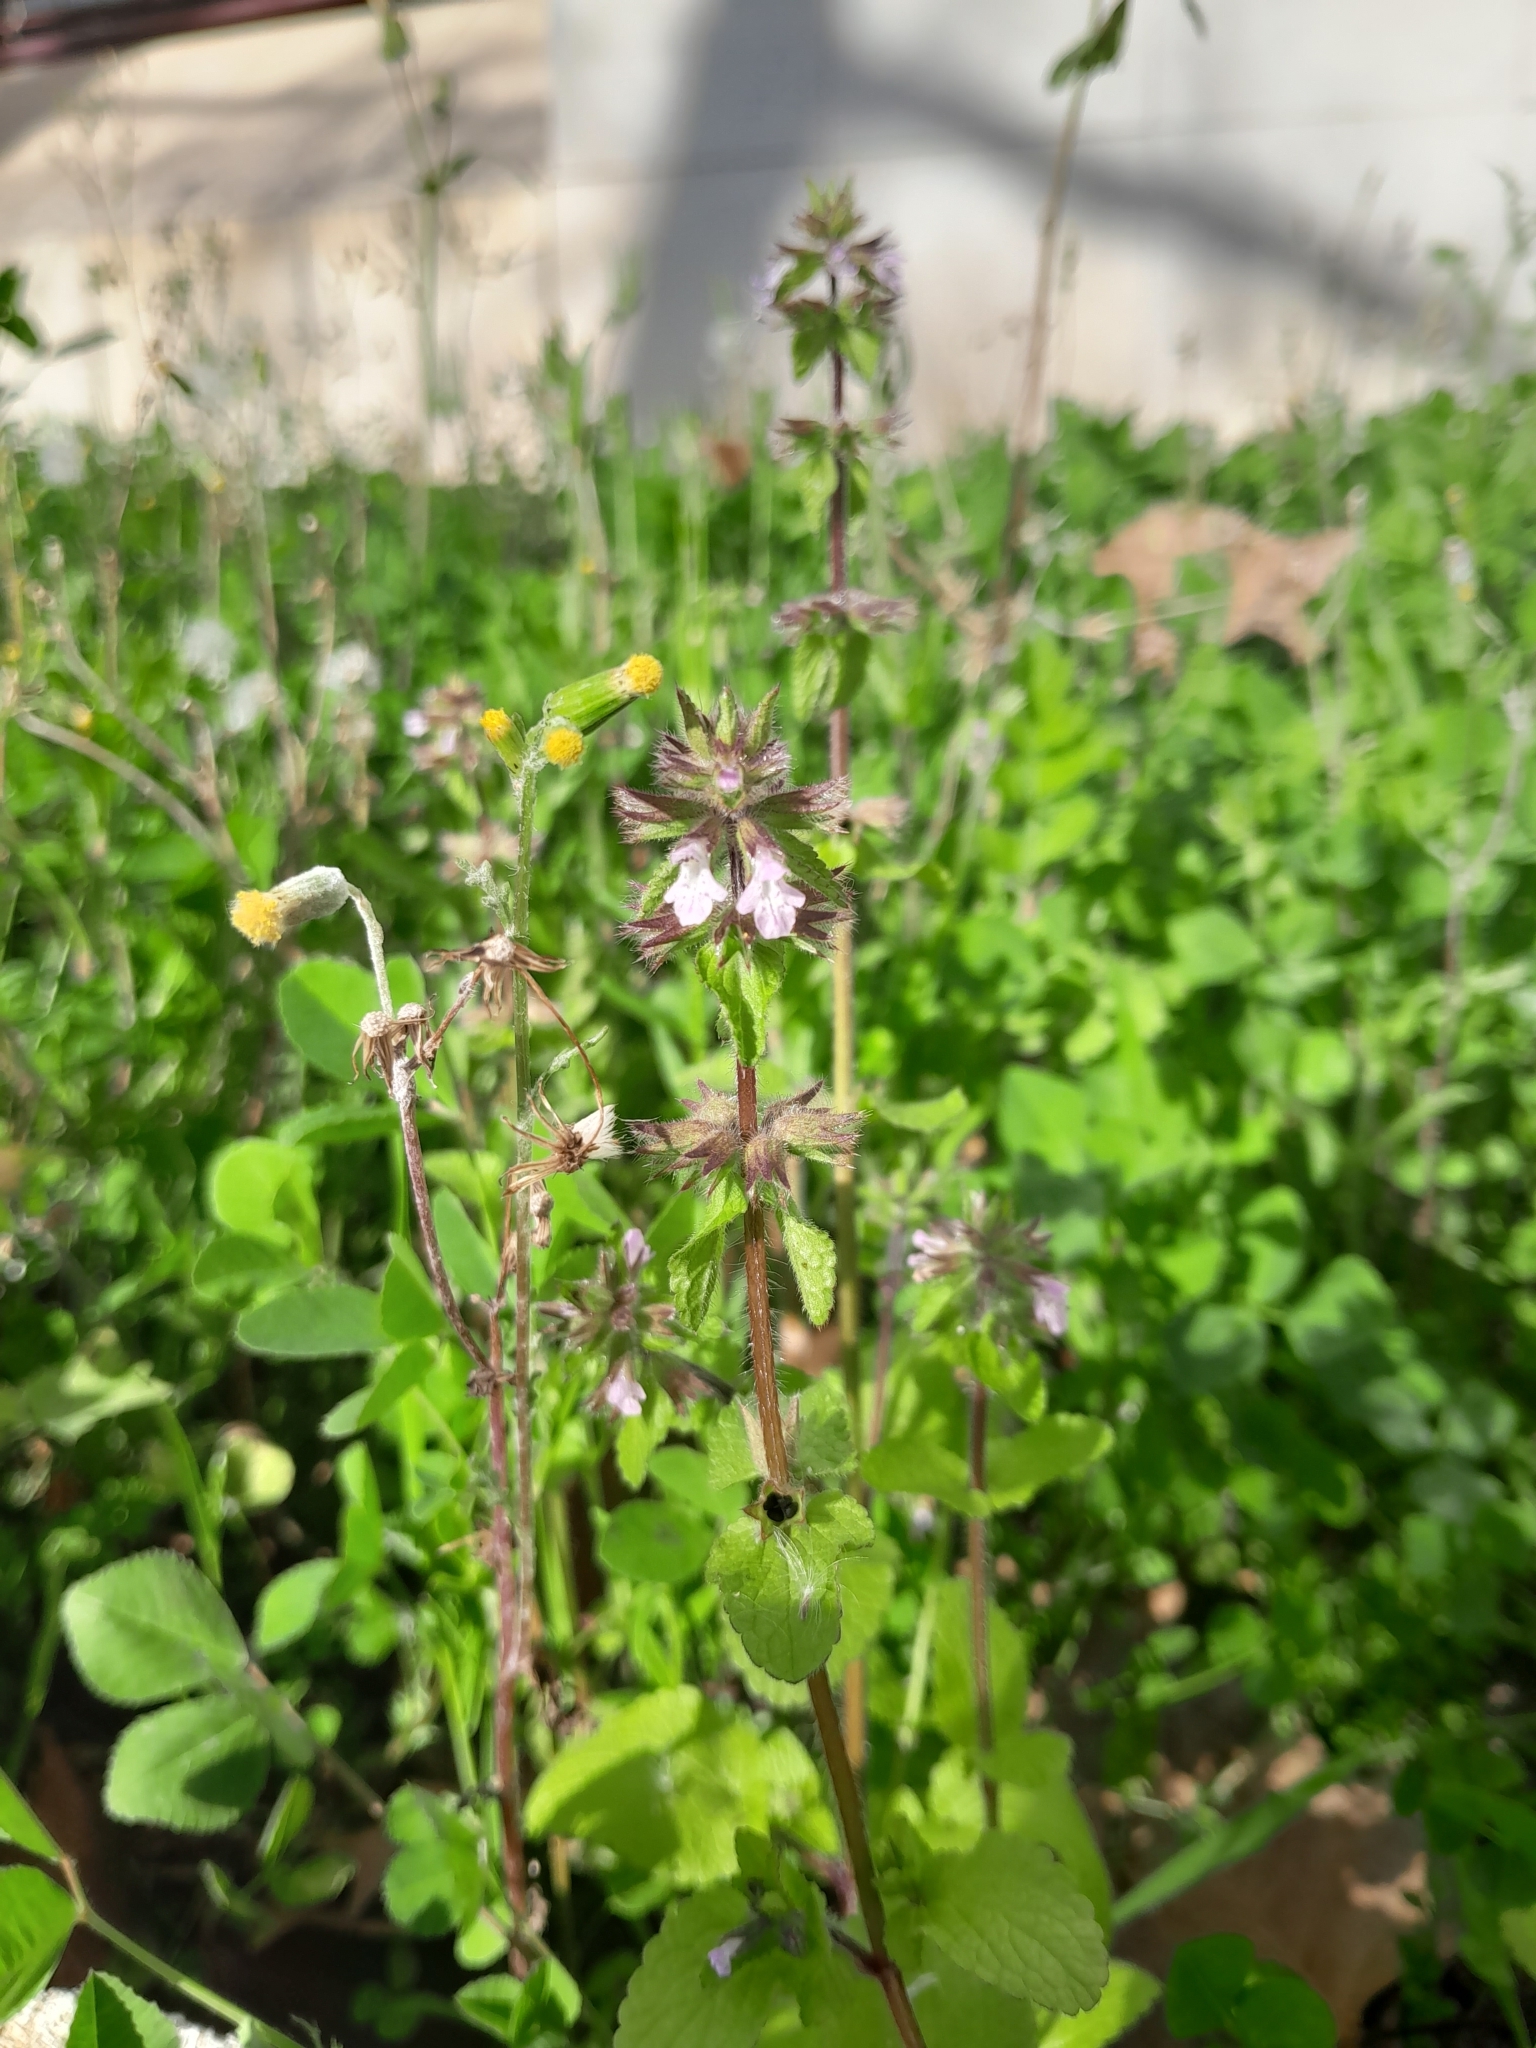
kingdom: Plantae
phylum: Tracheophyta
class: Magnoliopsida
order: Lamiales
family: Lamiaceae
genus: Stachys
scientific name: Stachys arvensis
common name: Field woundwort
